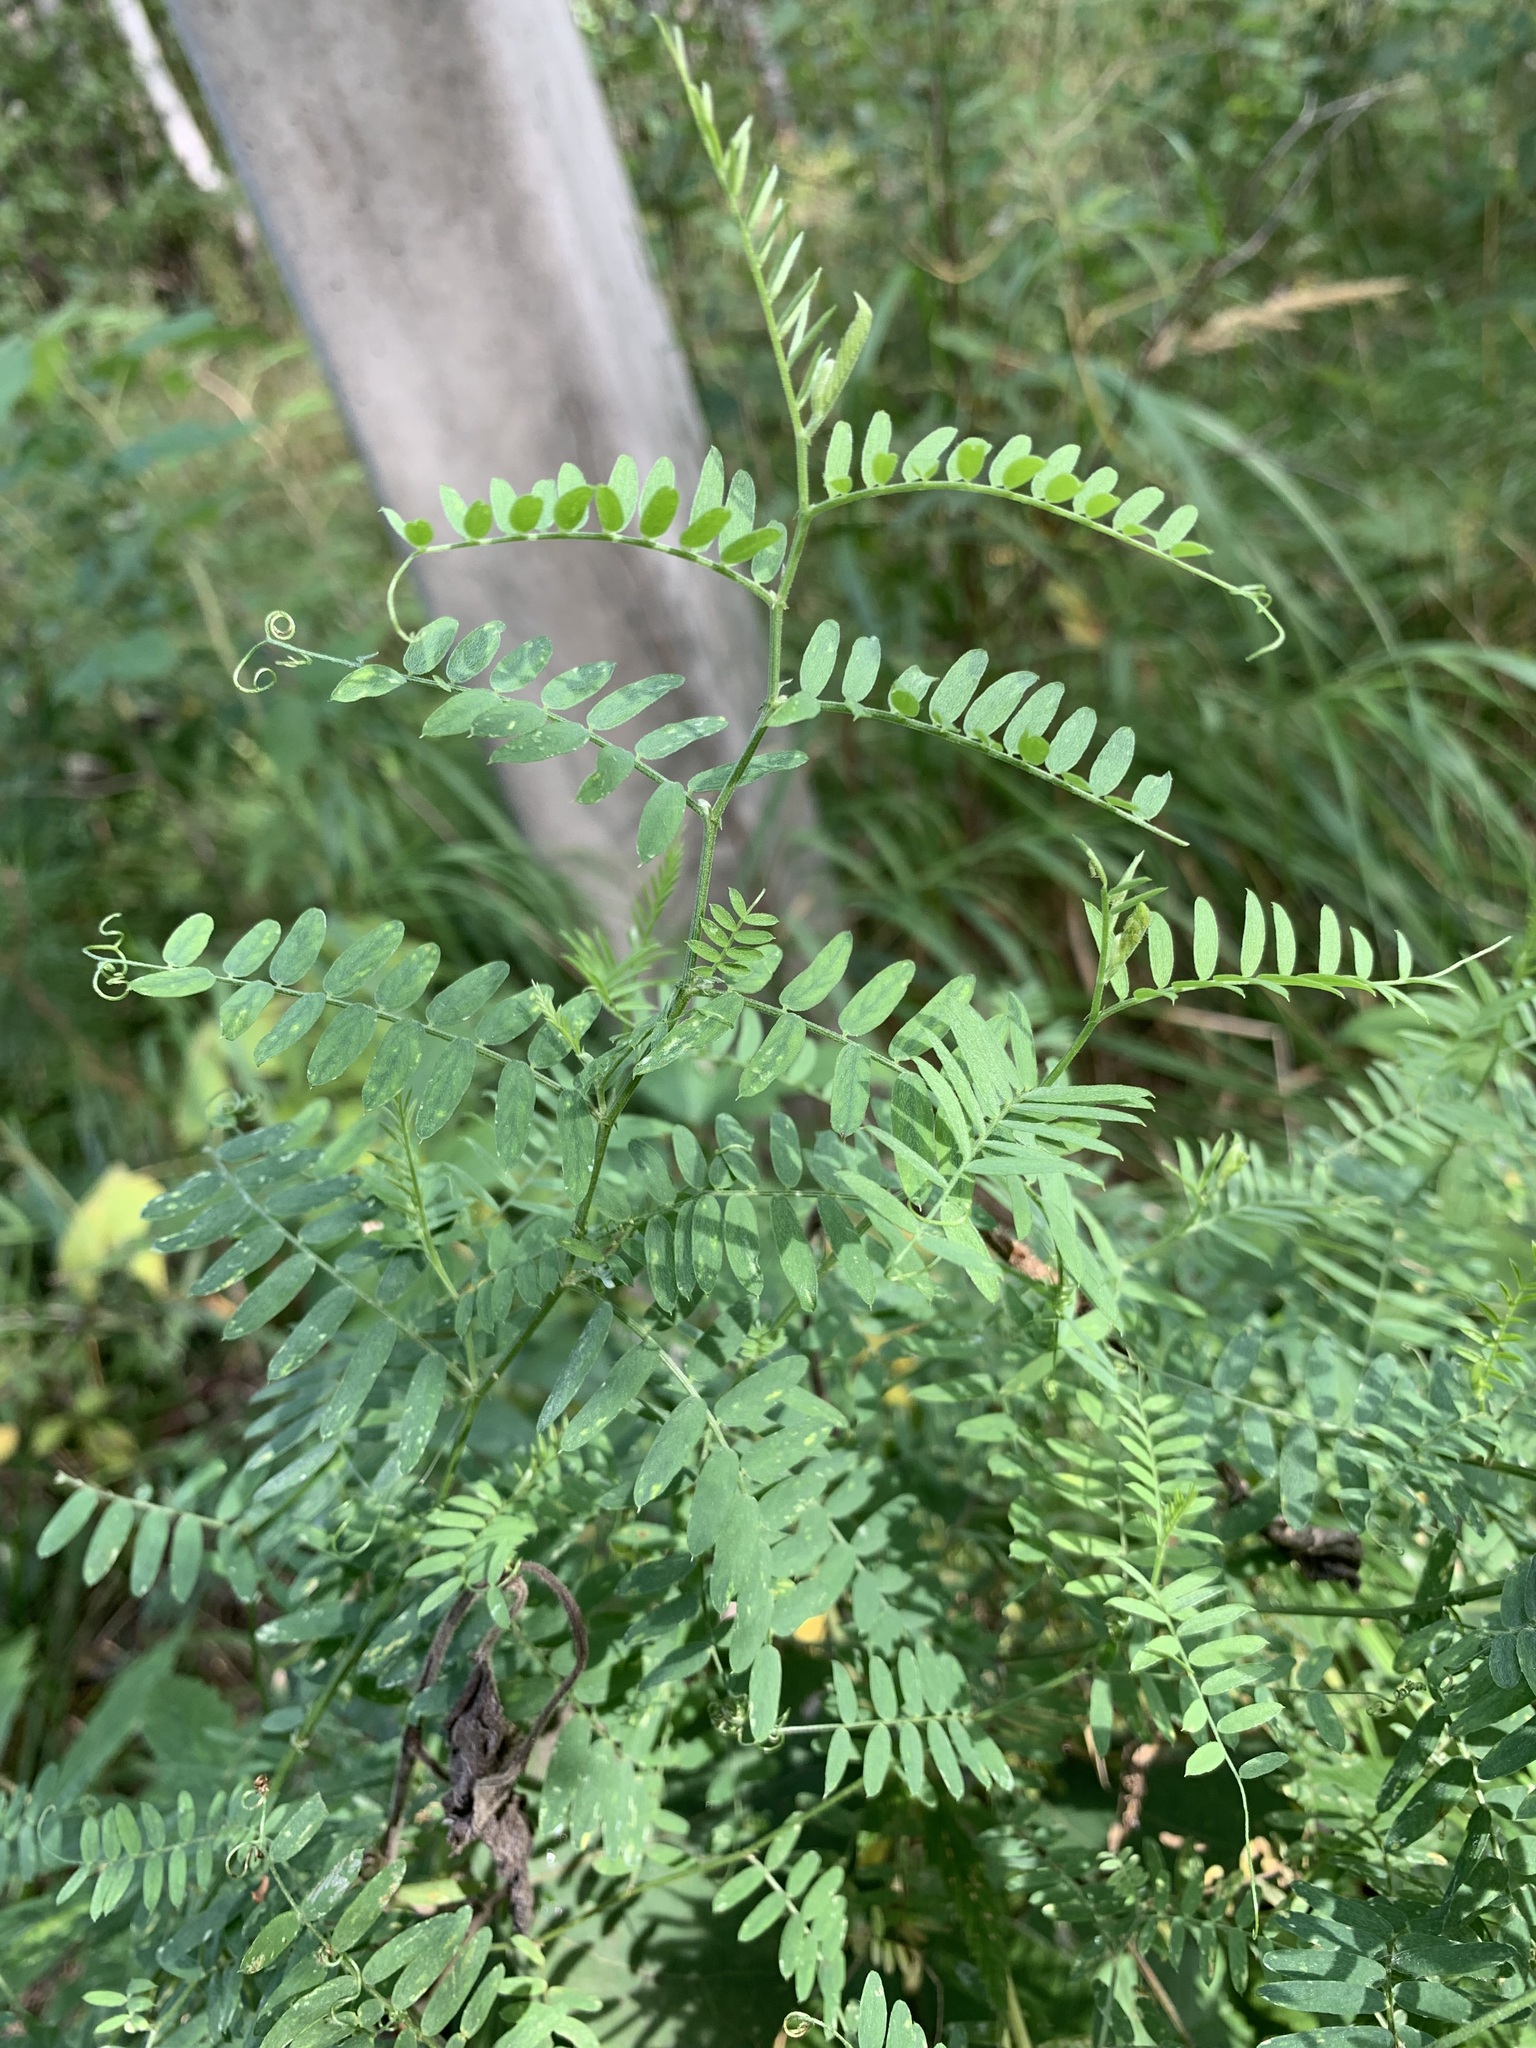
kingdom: Plantae
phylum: Tracheophyta
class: Magnoliopsida
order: Fabales
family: Fabaceae
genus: Vicia
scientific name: Vicia cracca
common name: Bird vetch
